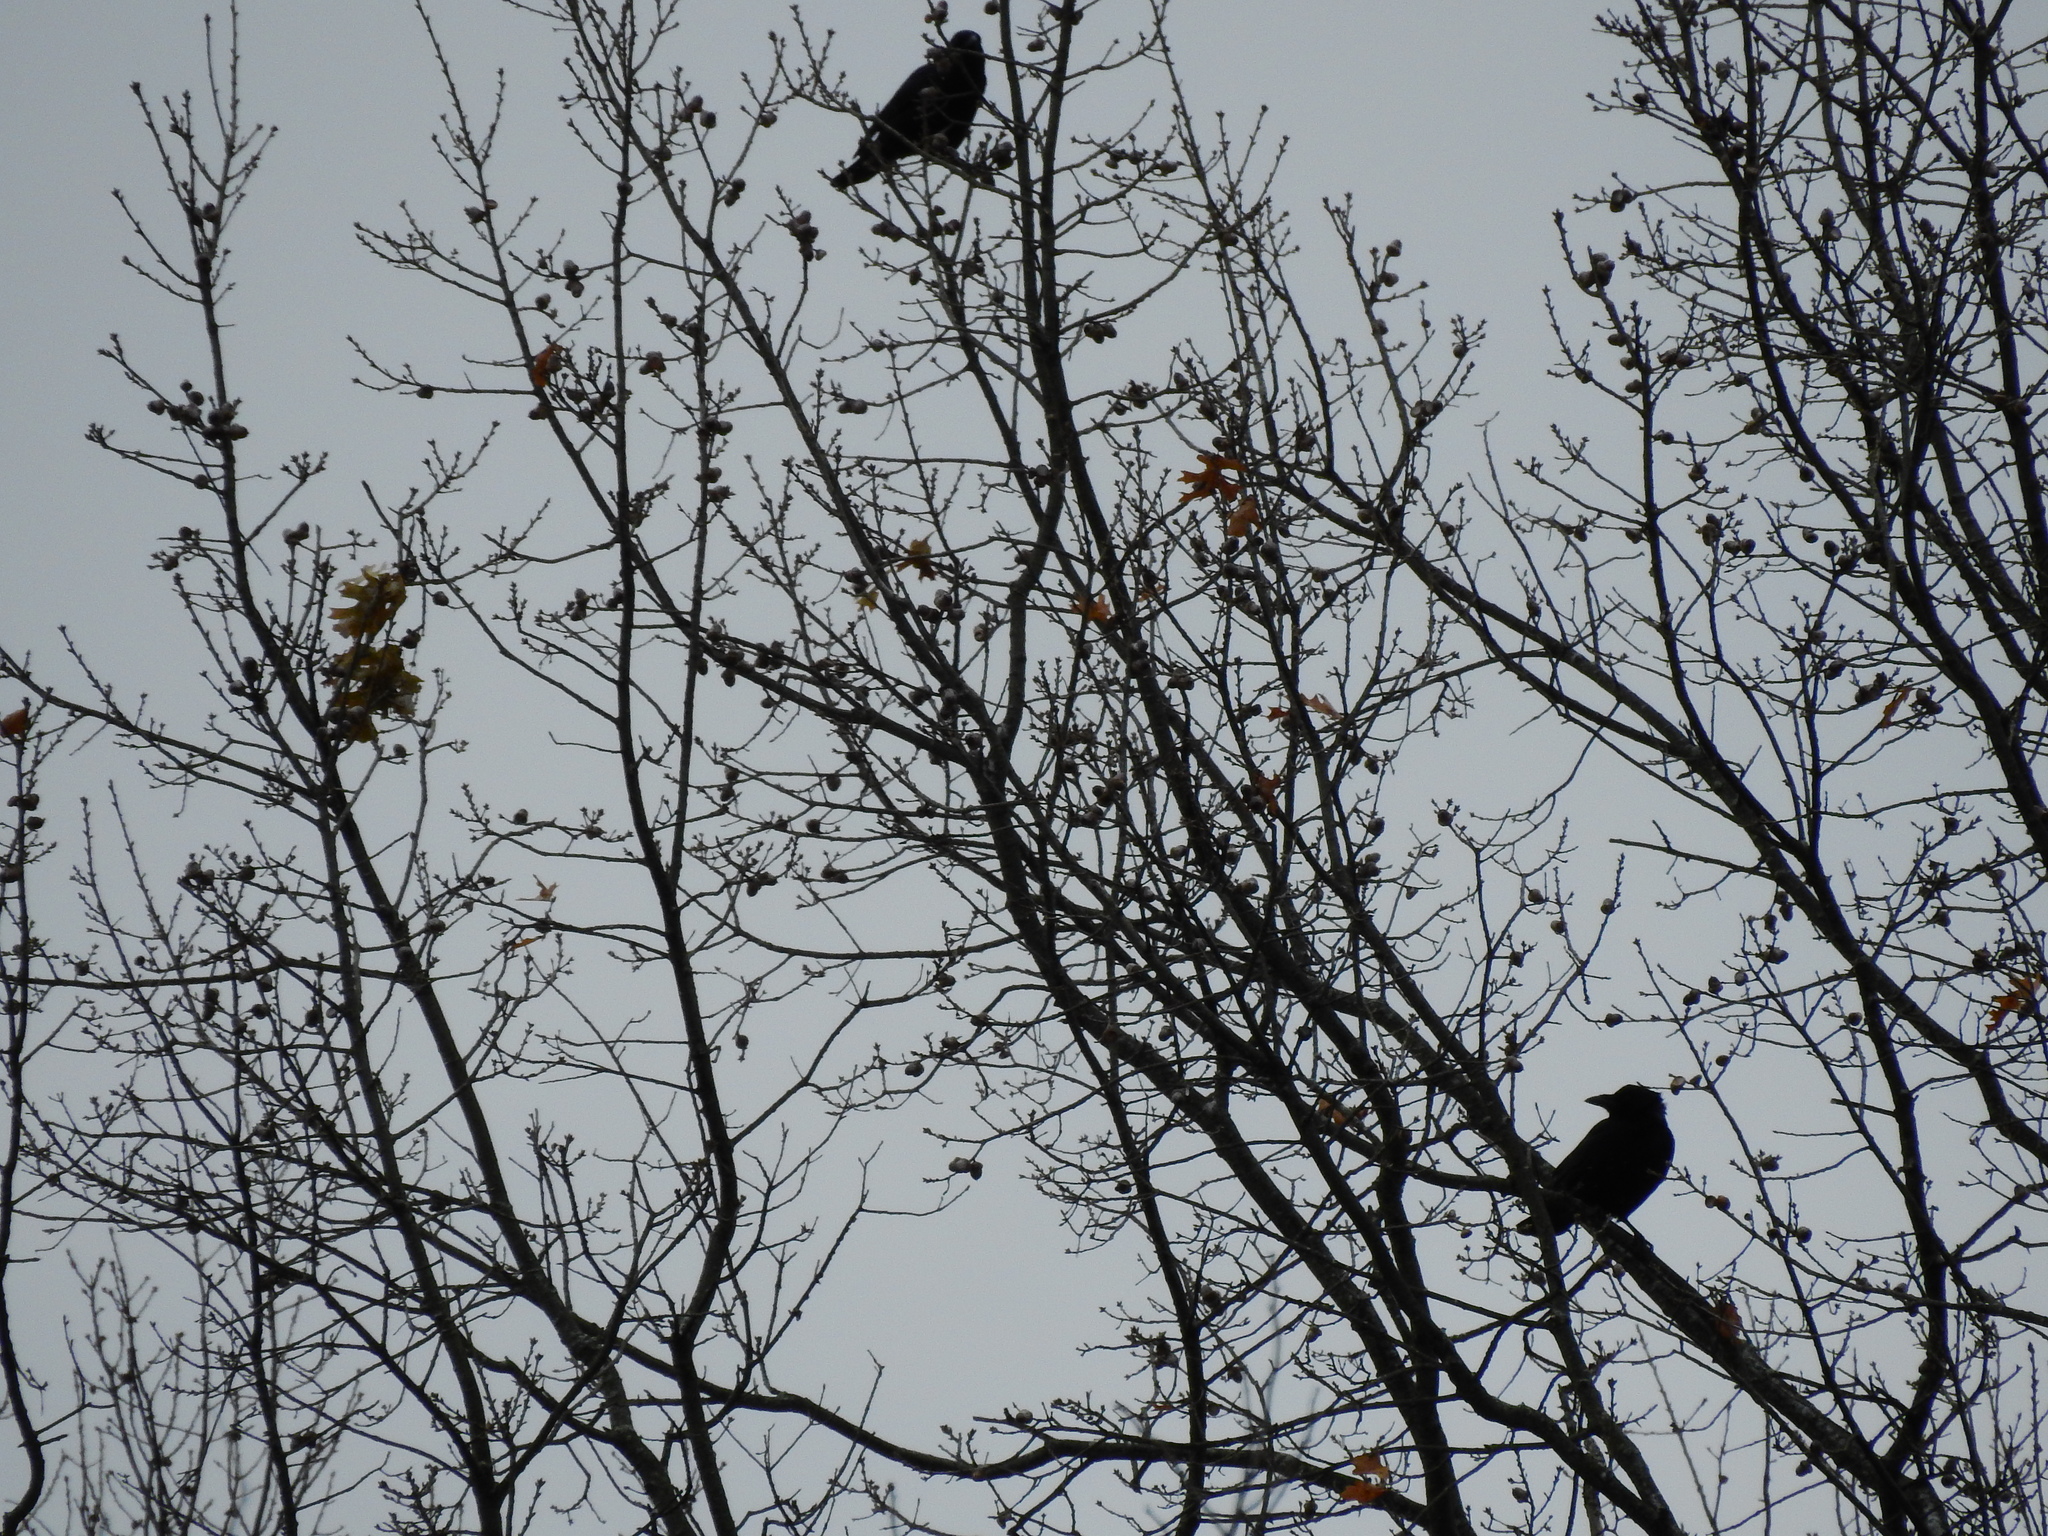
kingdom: Animalia
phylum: Chordata
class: Aves
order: Passeriformes
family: Corvidae
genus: Corvus
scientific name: Corvus brachyrhynchos
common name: American crow
